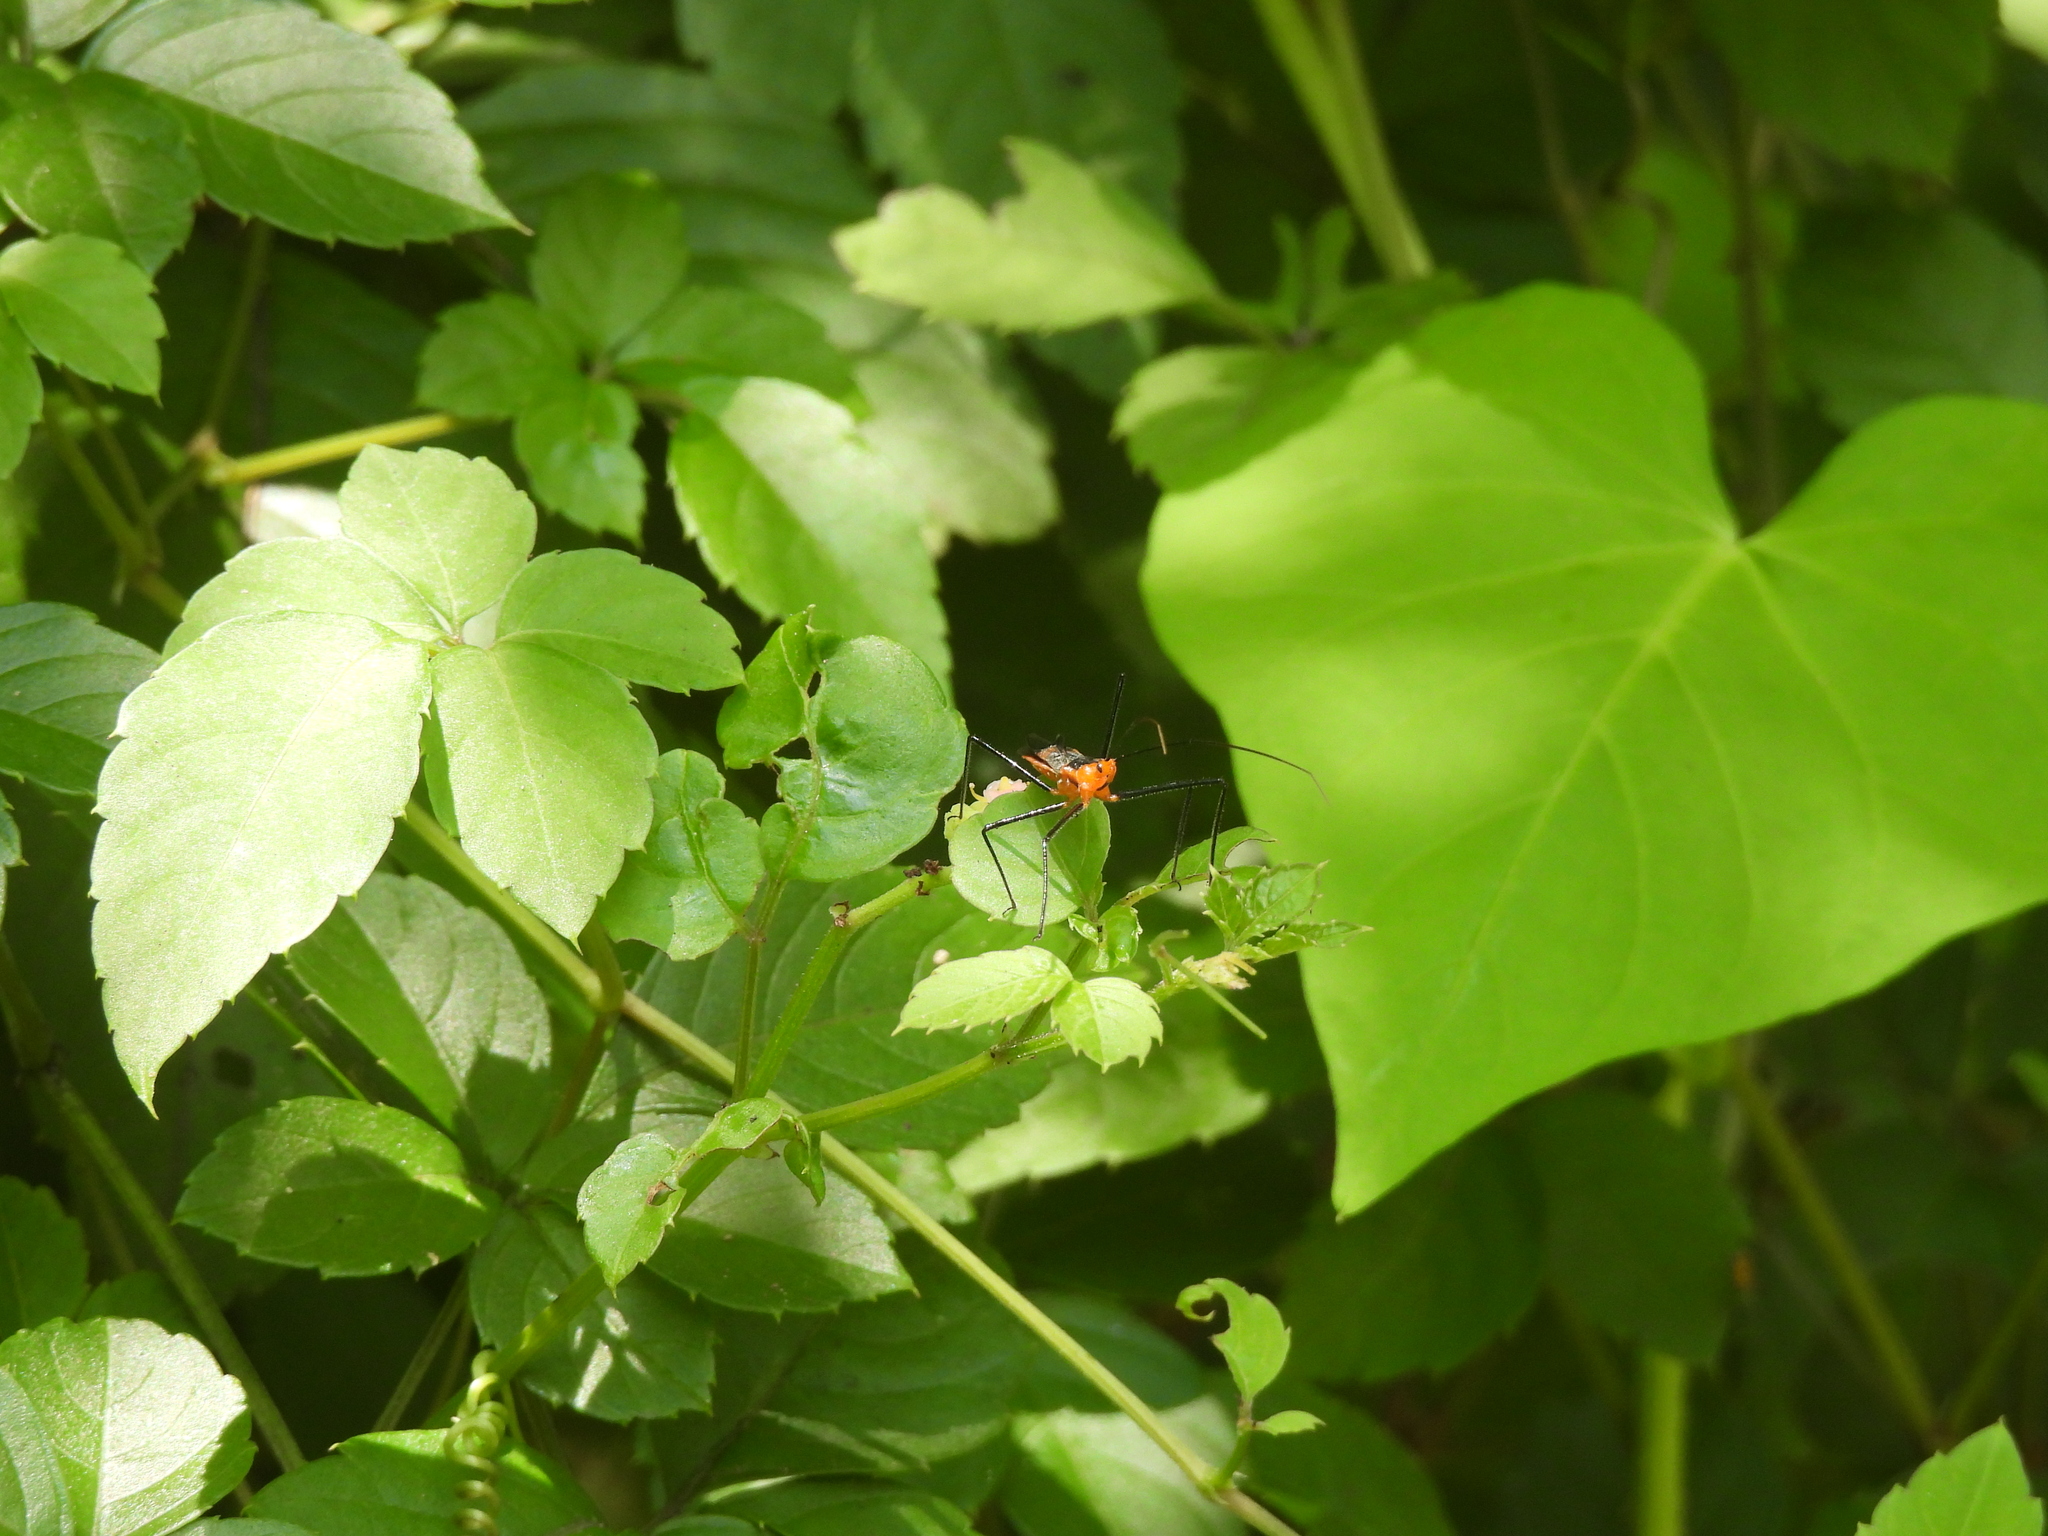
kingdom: Animalia
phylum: Arthropoda
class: Insecta
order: Hemiptera
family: Reduviidae
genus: Zelus
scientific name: Zelus longipes
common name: Milkweed assassin bug
